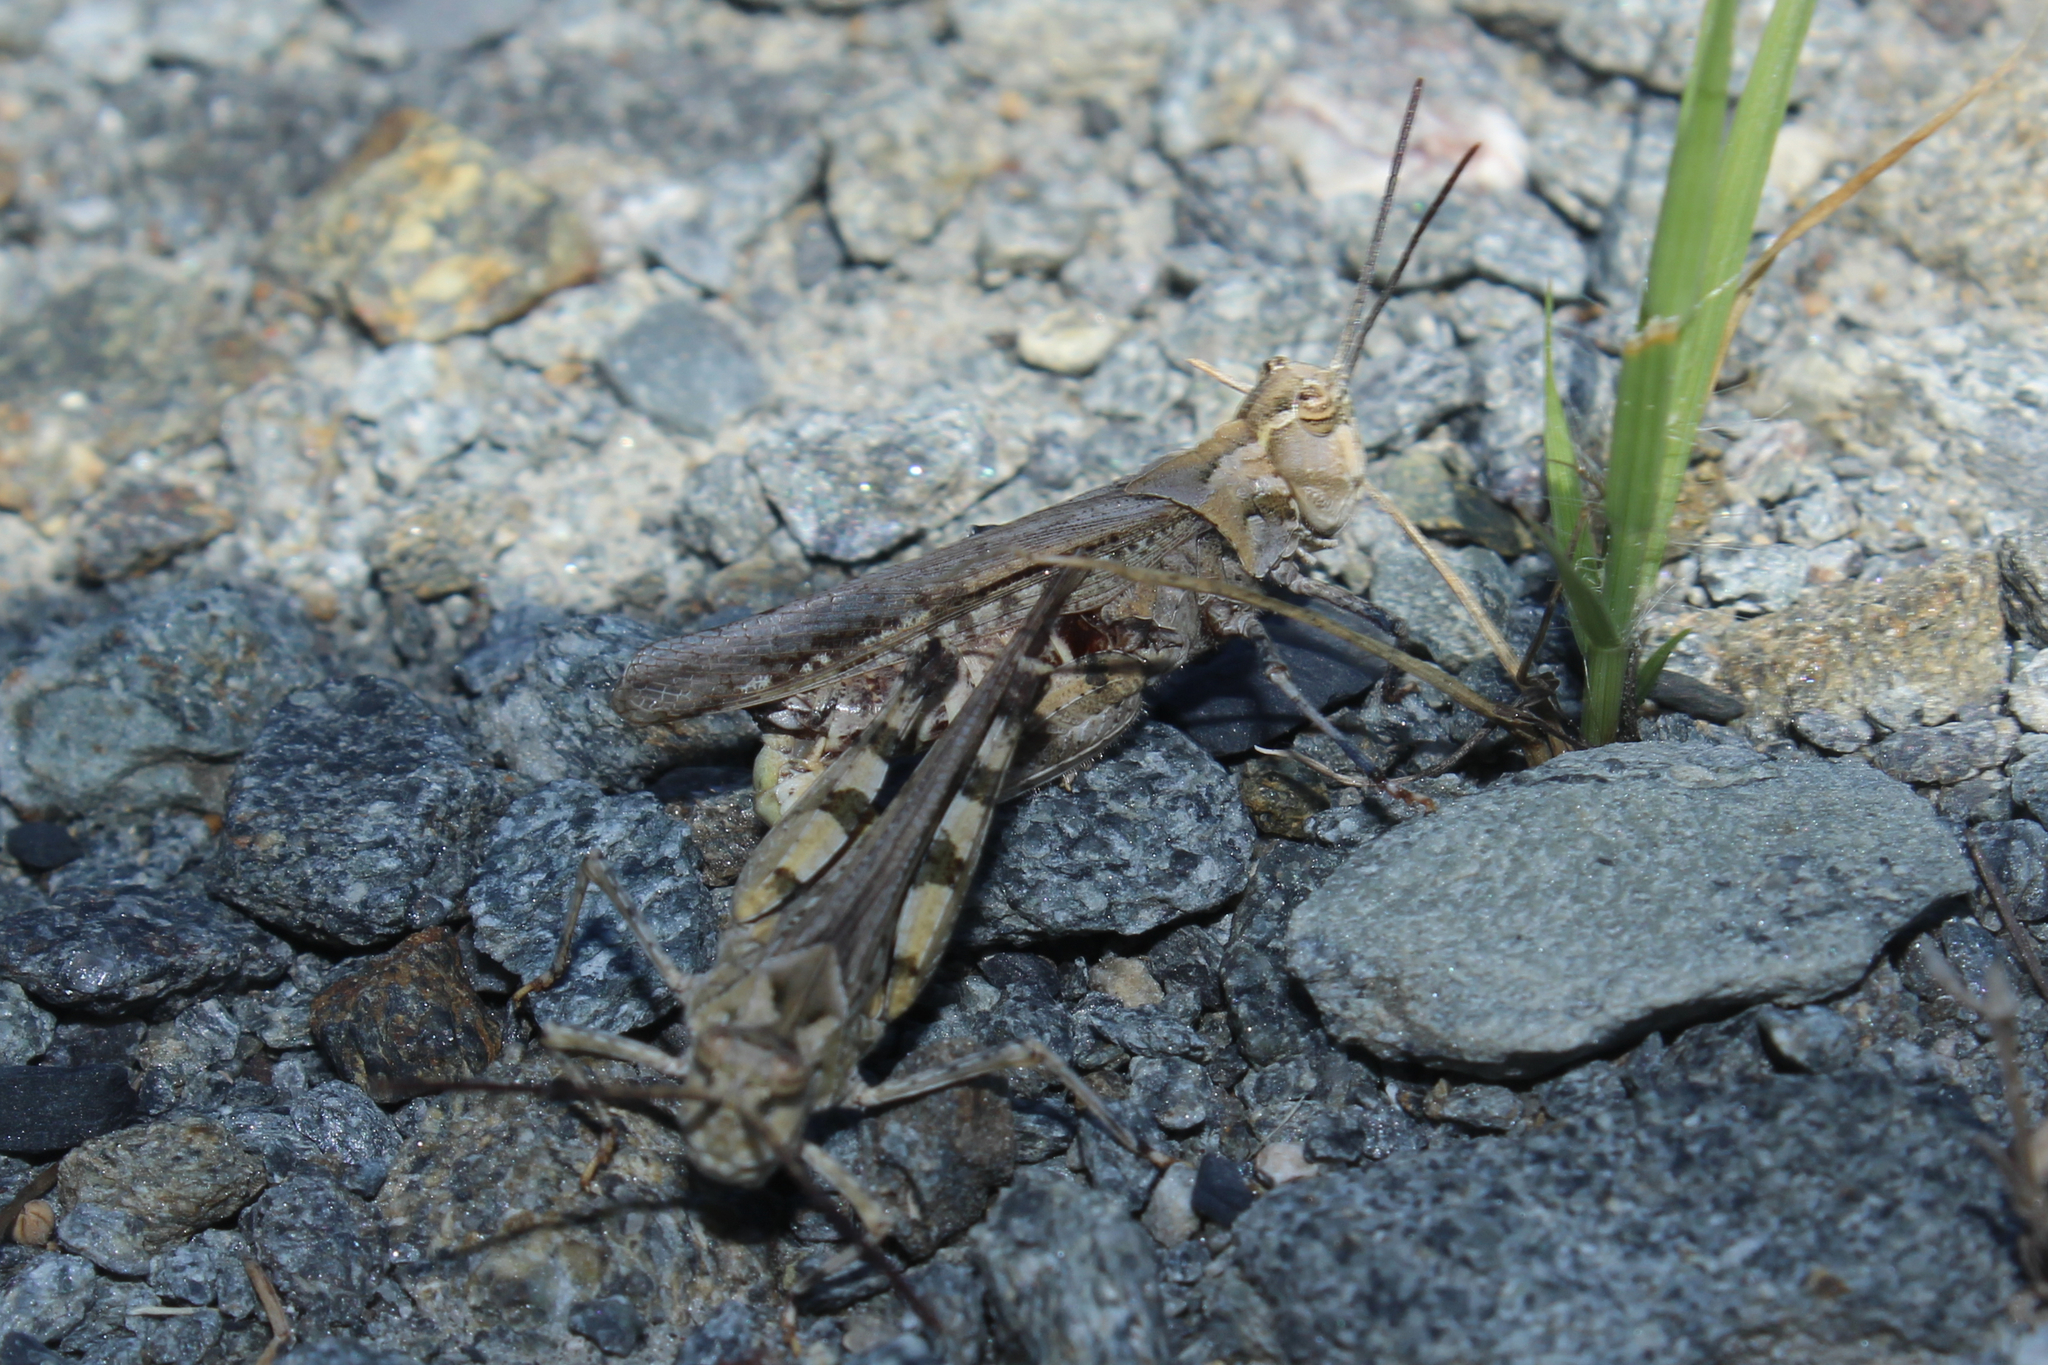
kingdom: Animalia
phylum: Arthropoda
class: Insecta
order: Orthoptera
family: Acrididae
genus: Psinidia
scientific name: Psinidia fenestralis
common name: Long-horned locust
